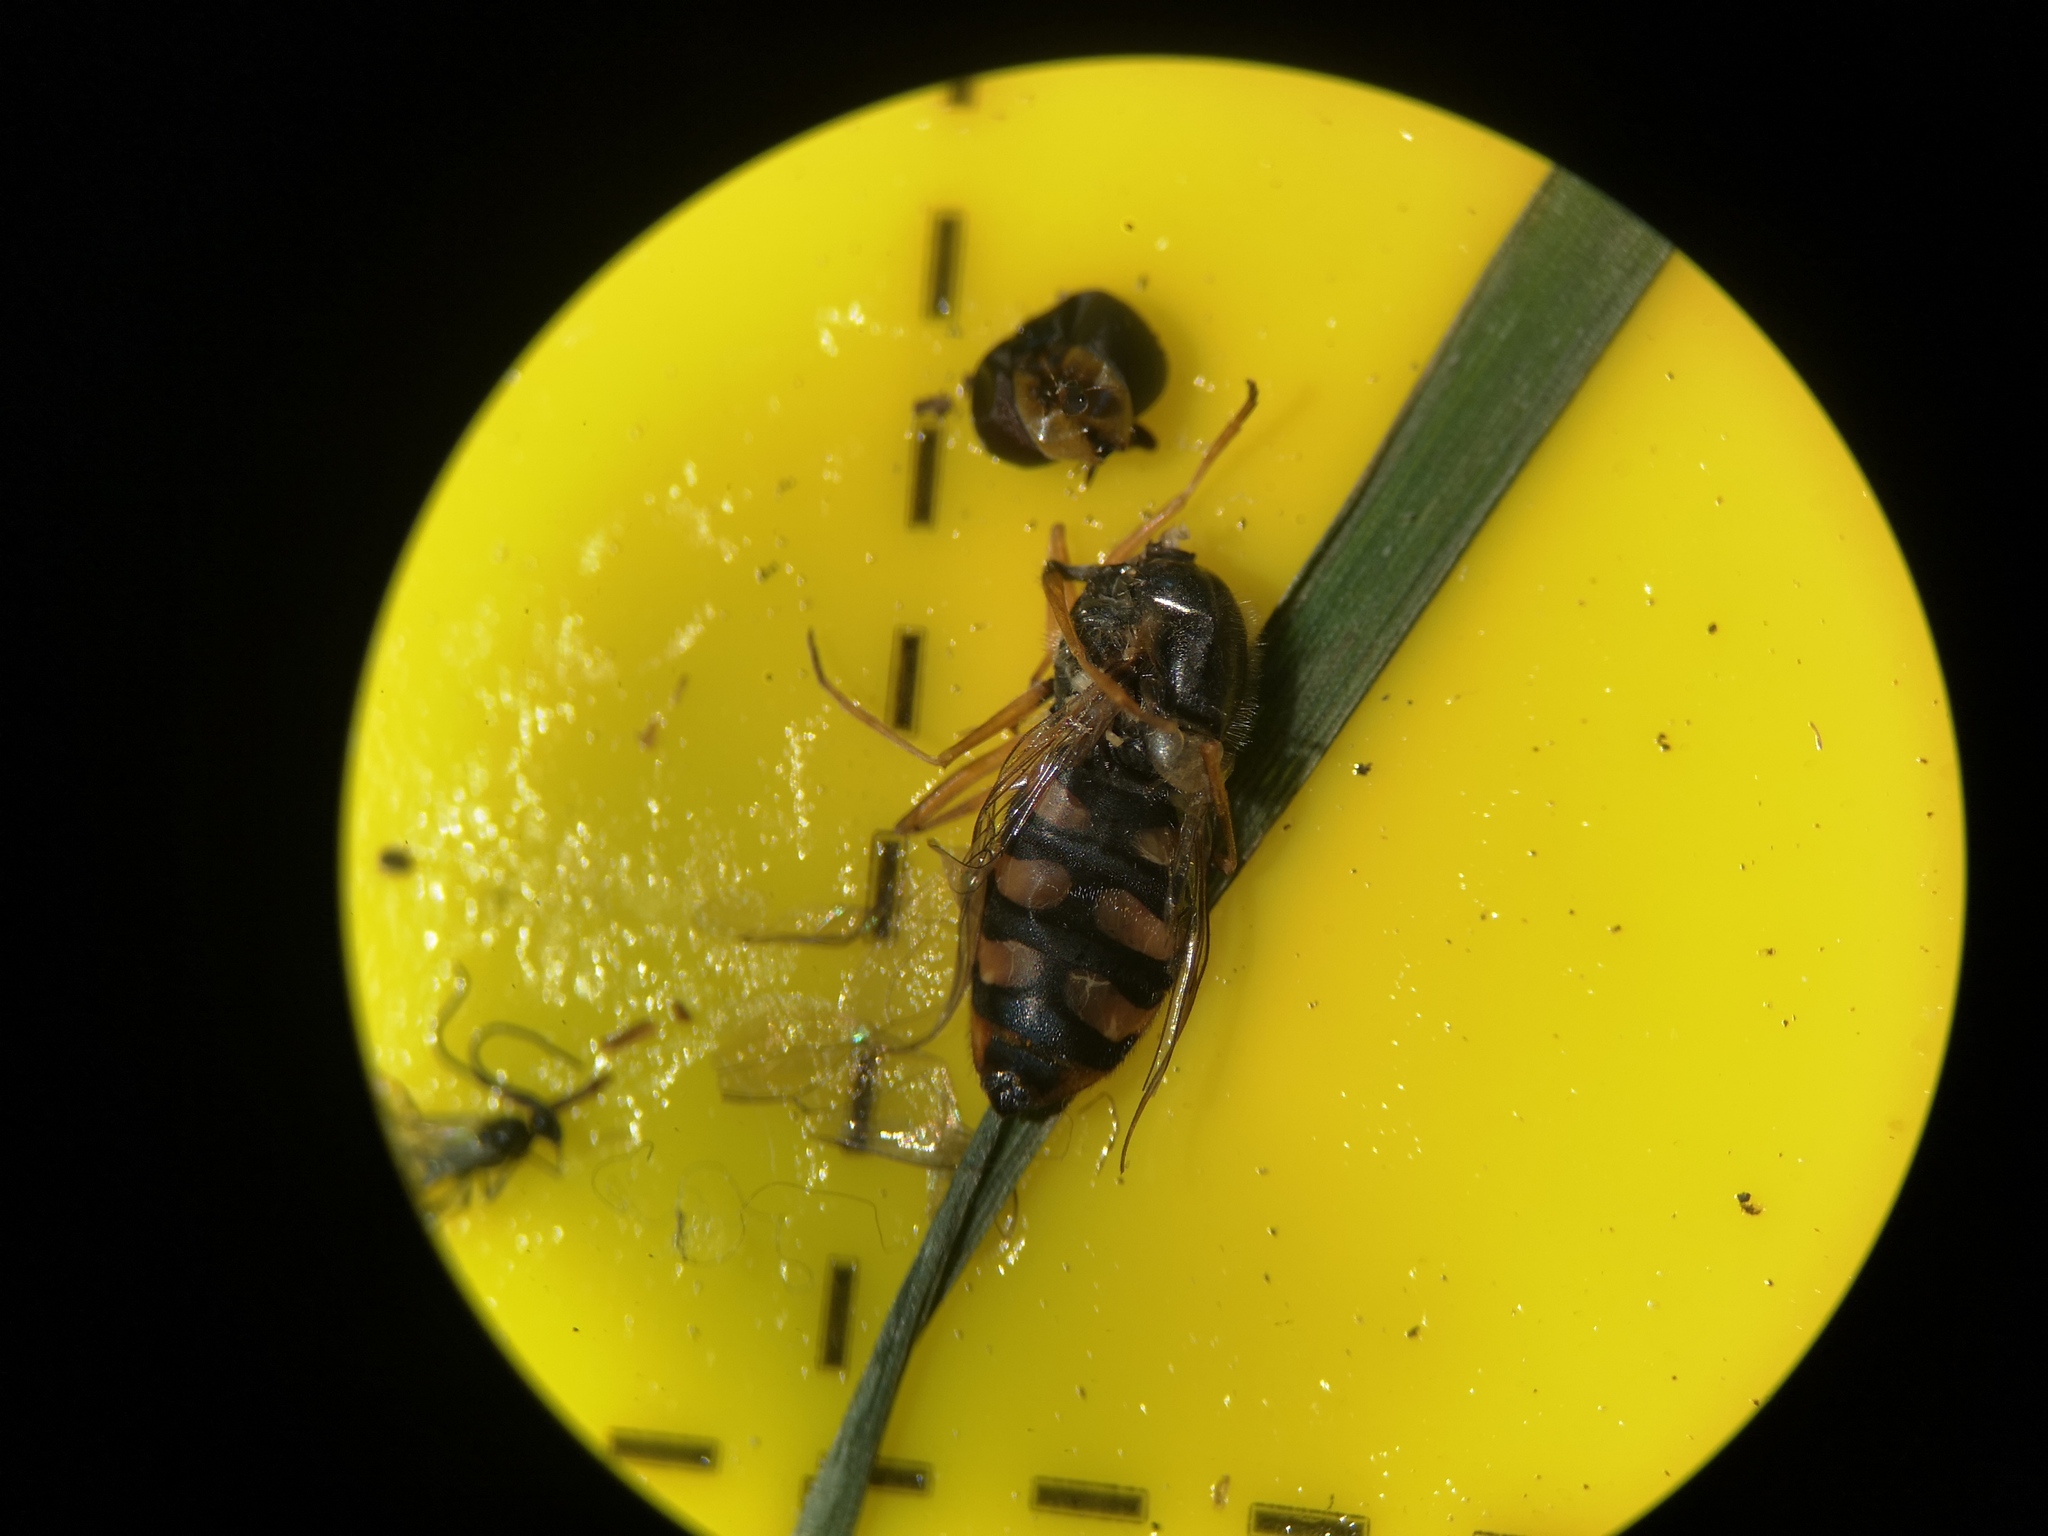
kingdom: Animalia
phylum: Arthropoda
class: Insecta
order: Diptera
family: Syrphidae
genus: Eupeodes
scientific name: Eupeodes corollae
